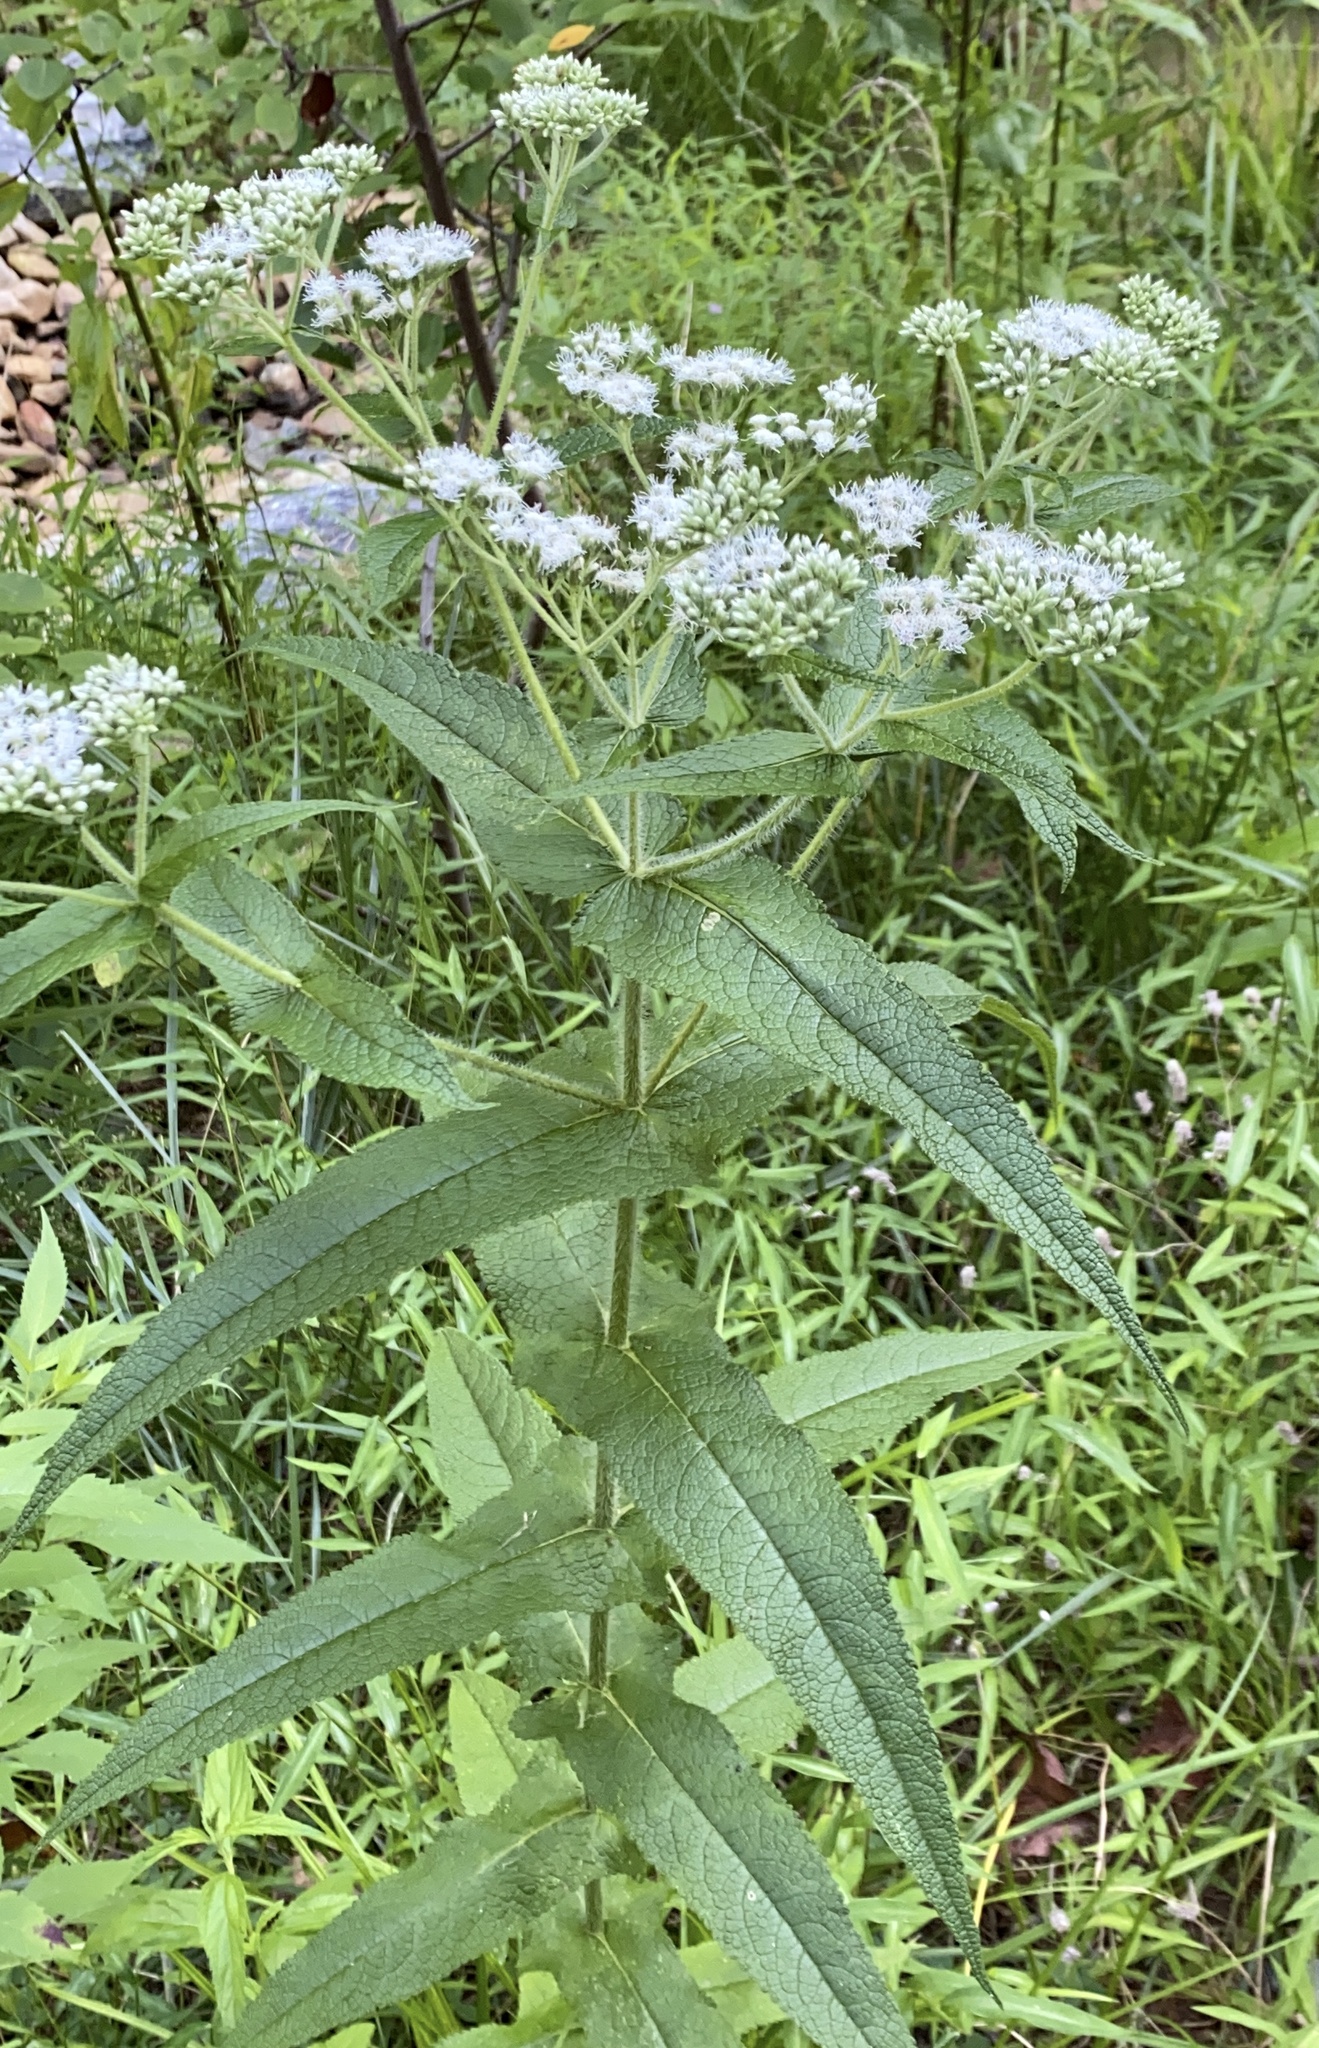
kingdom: Plantae
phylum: Tracheophyta
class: Magnoliopsida
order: Asterales
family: Asteraceae
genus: Eupatorium
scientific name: Eupatorium perfoliatum
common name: Boneset
